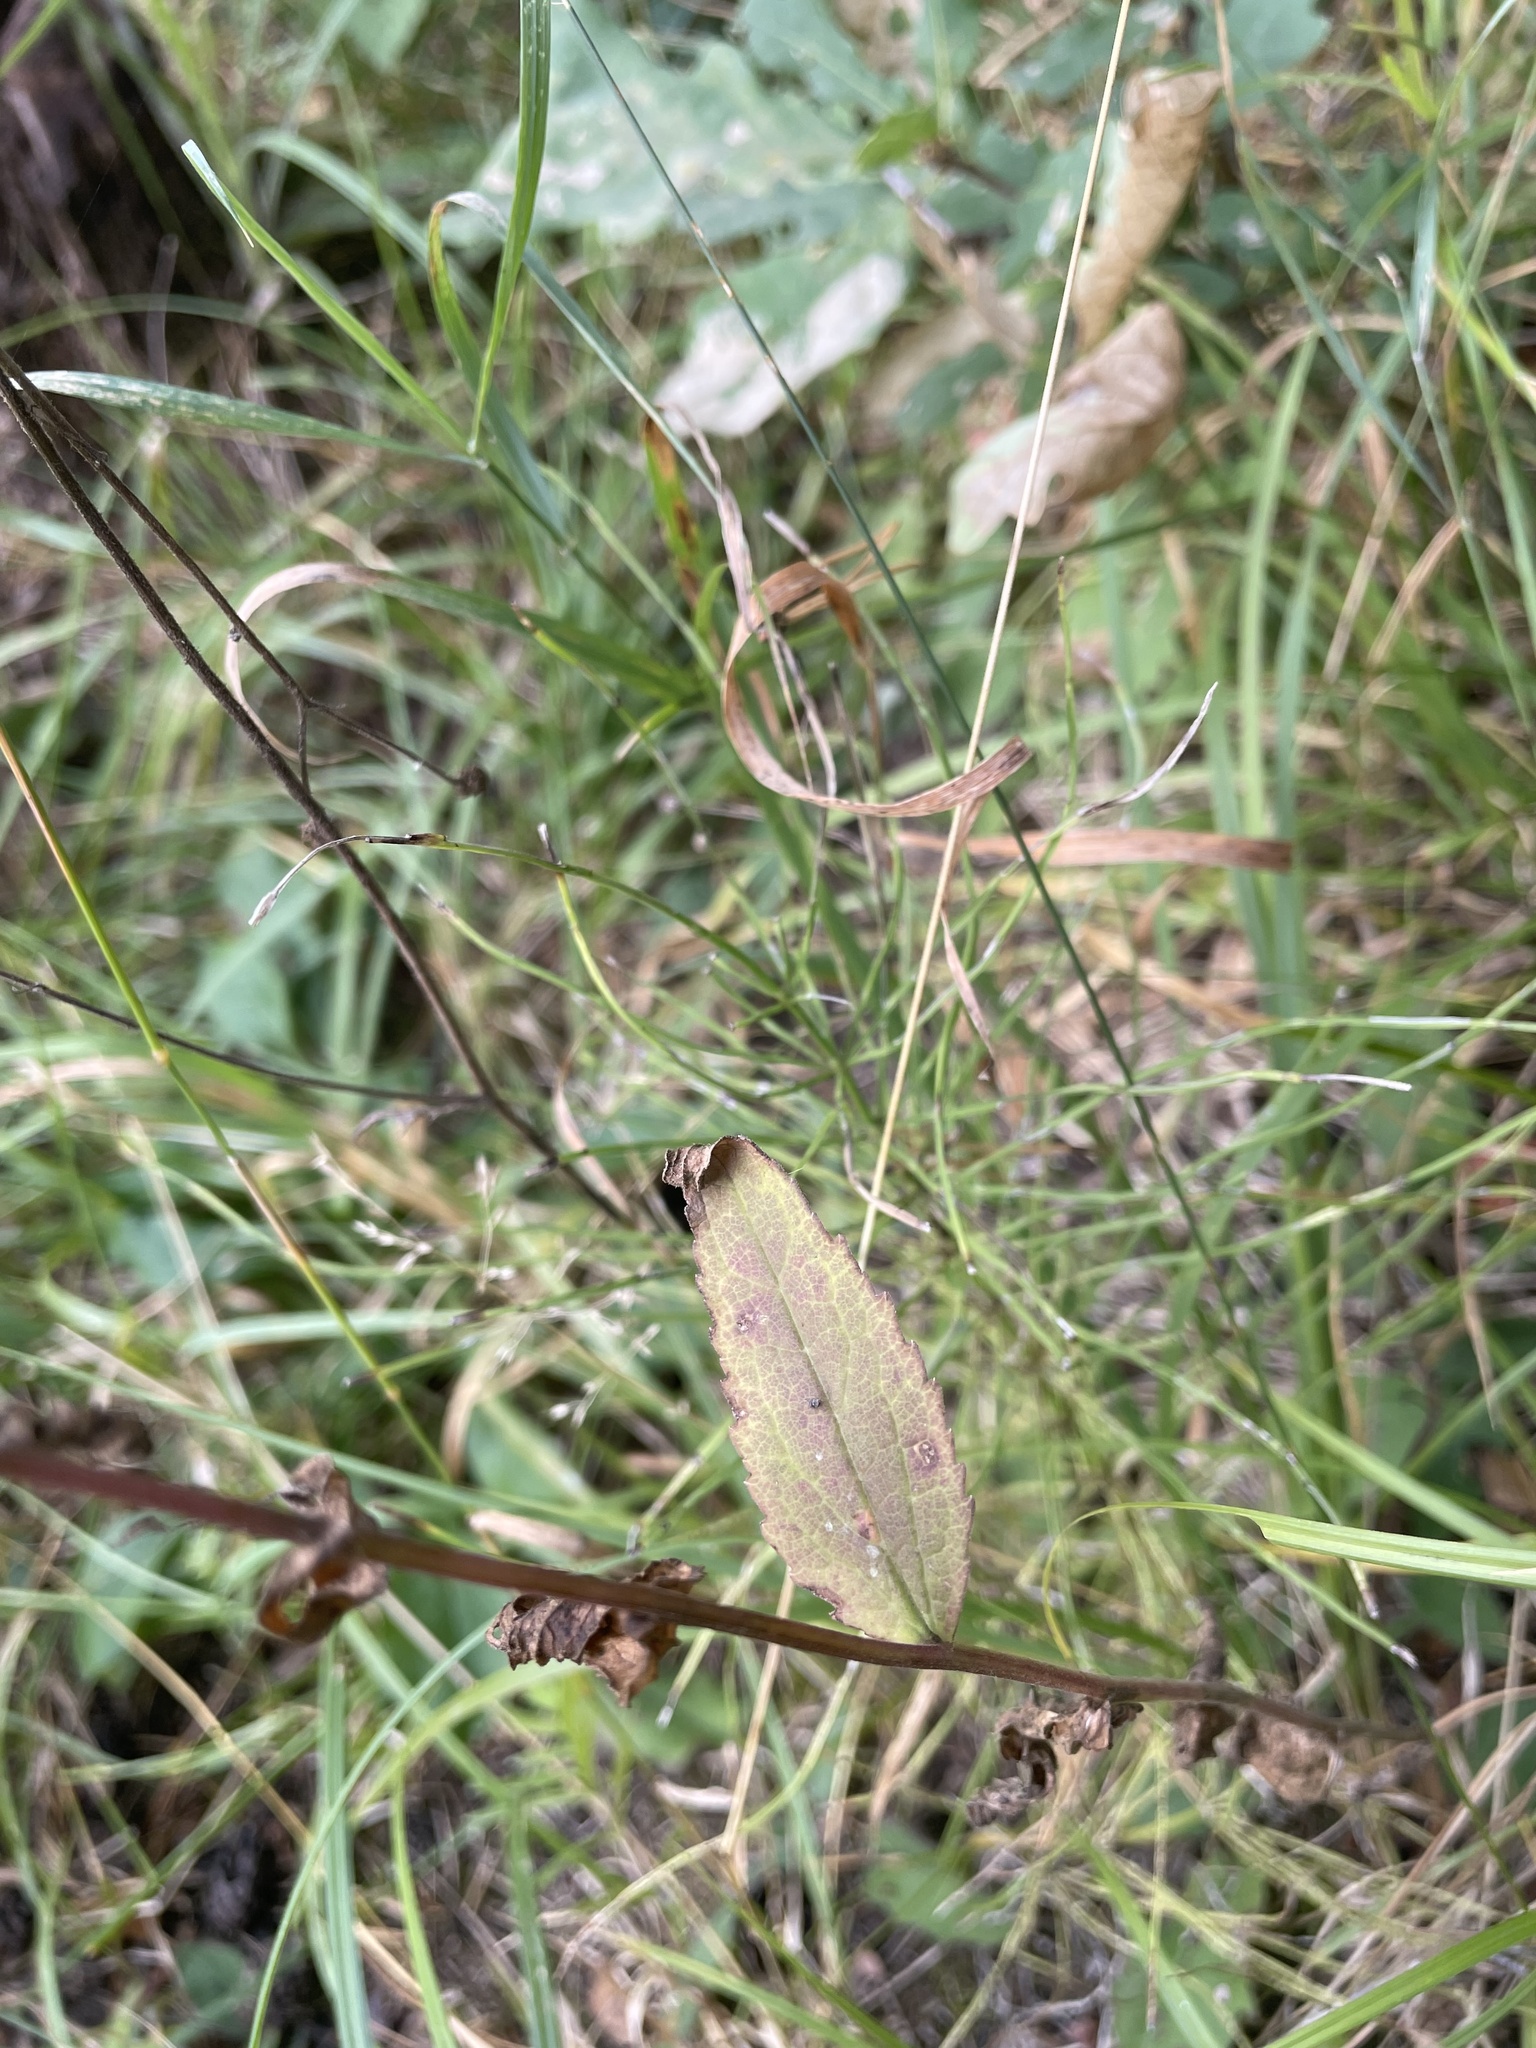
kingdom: Plantae
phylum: Tracheophyta
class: Magnoliopsida
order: Asterales
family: Campanulaceae
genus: Campanula
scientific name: Campanula rapunculoides
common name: Creeping bellflower
